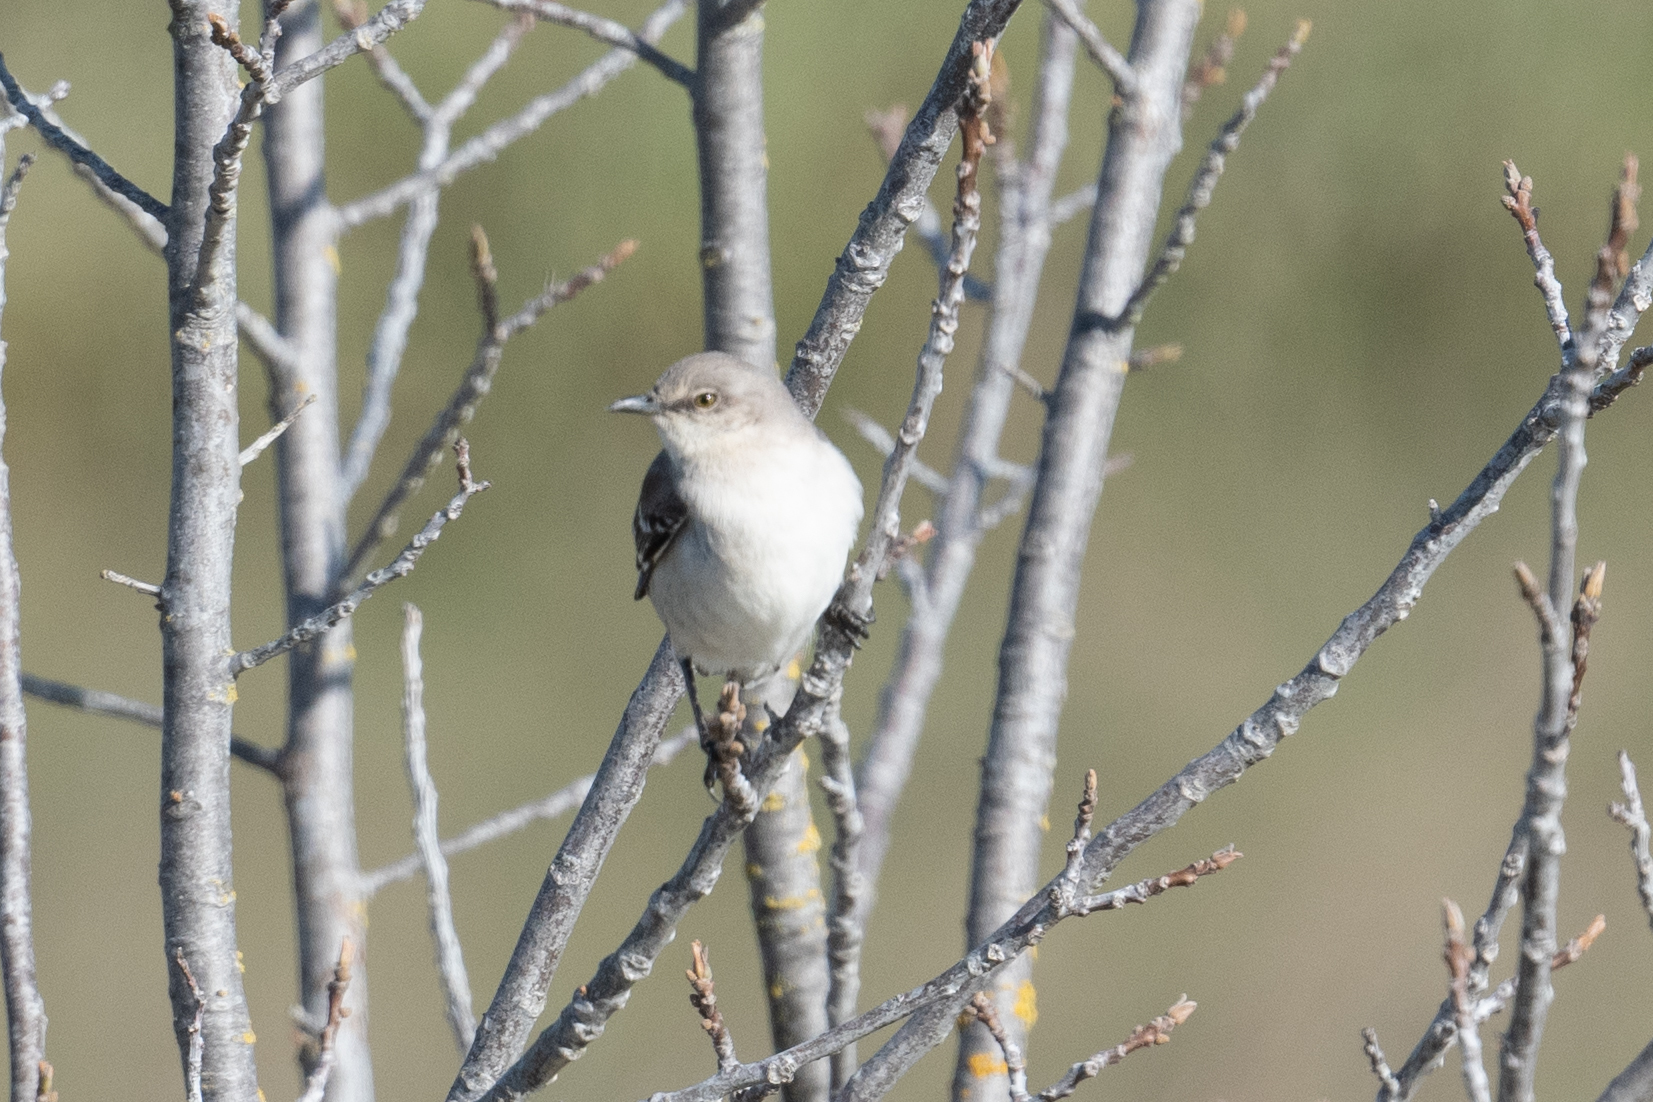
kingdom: Animalia
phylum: Chordata
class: Aves
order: Passeriformes
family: Mimidae
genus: Mimus
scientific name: Mimus polyglottos
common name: Northern mockingbird
